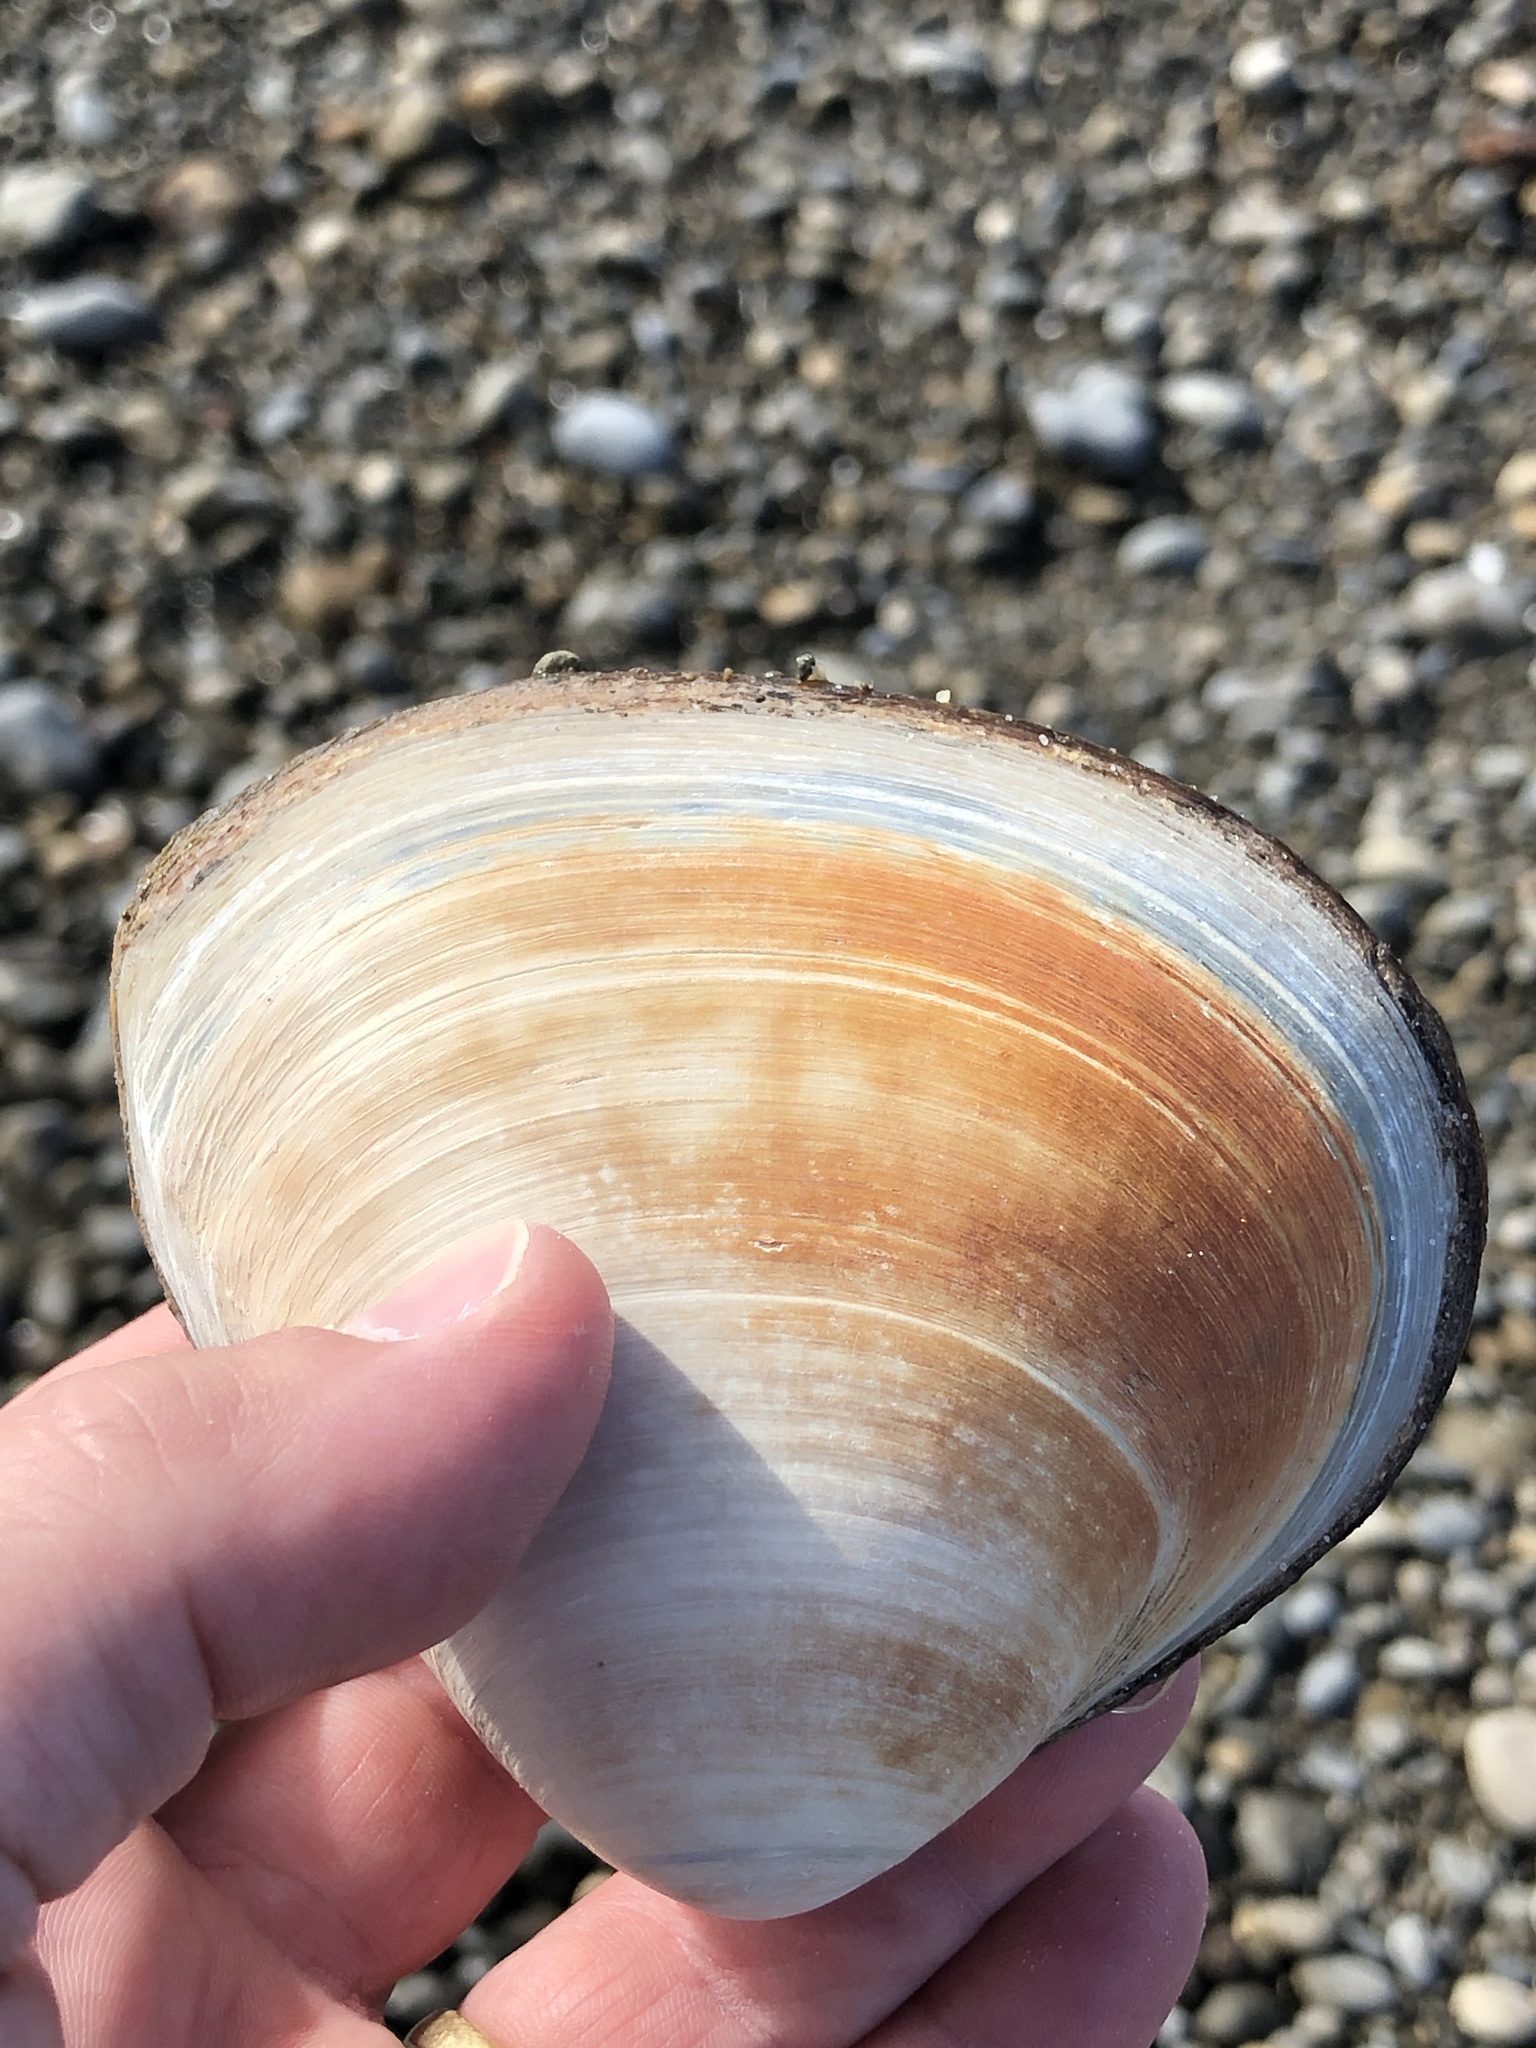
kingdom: Animalia
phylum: Mollusca
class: Bivalvia
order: Venerida
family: Mactridae
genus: Spisula
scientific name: Spisula murchisoni
